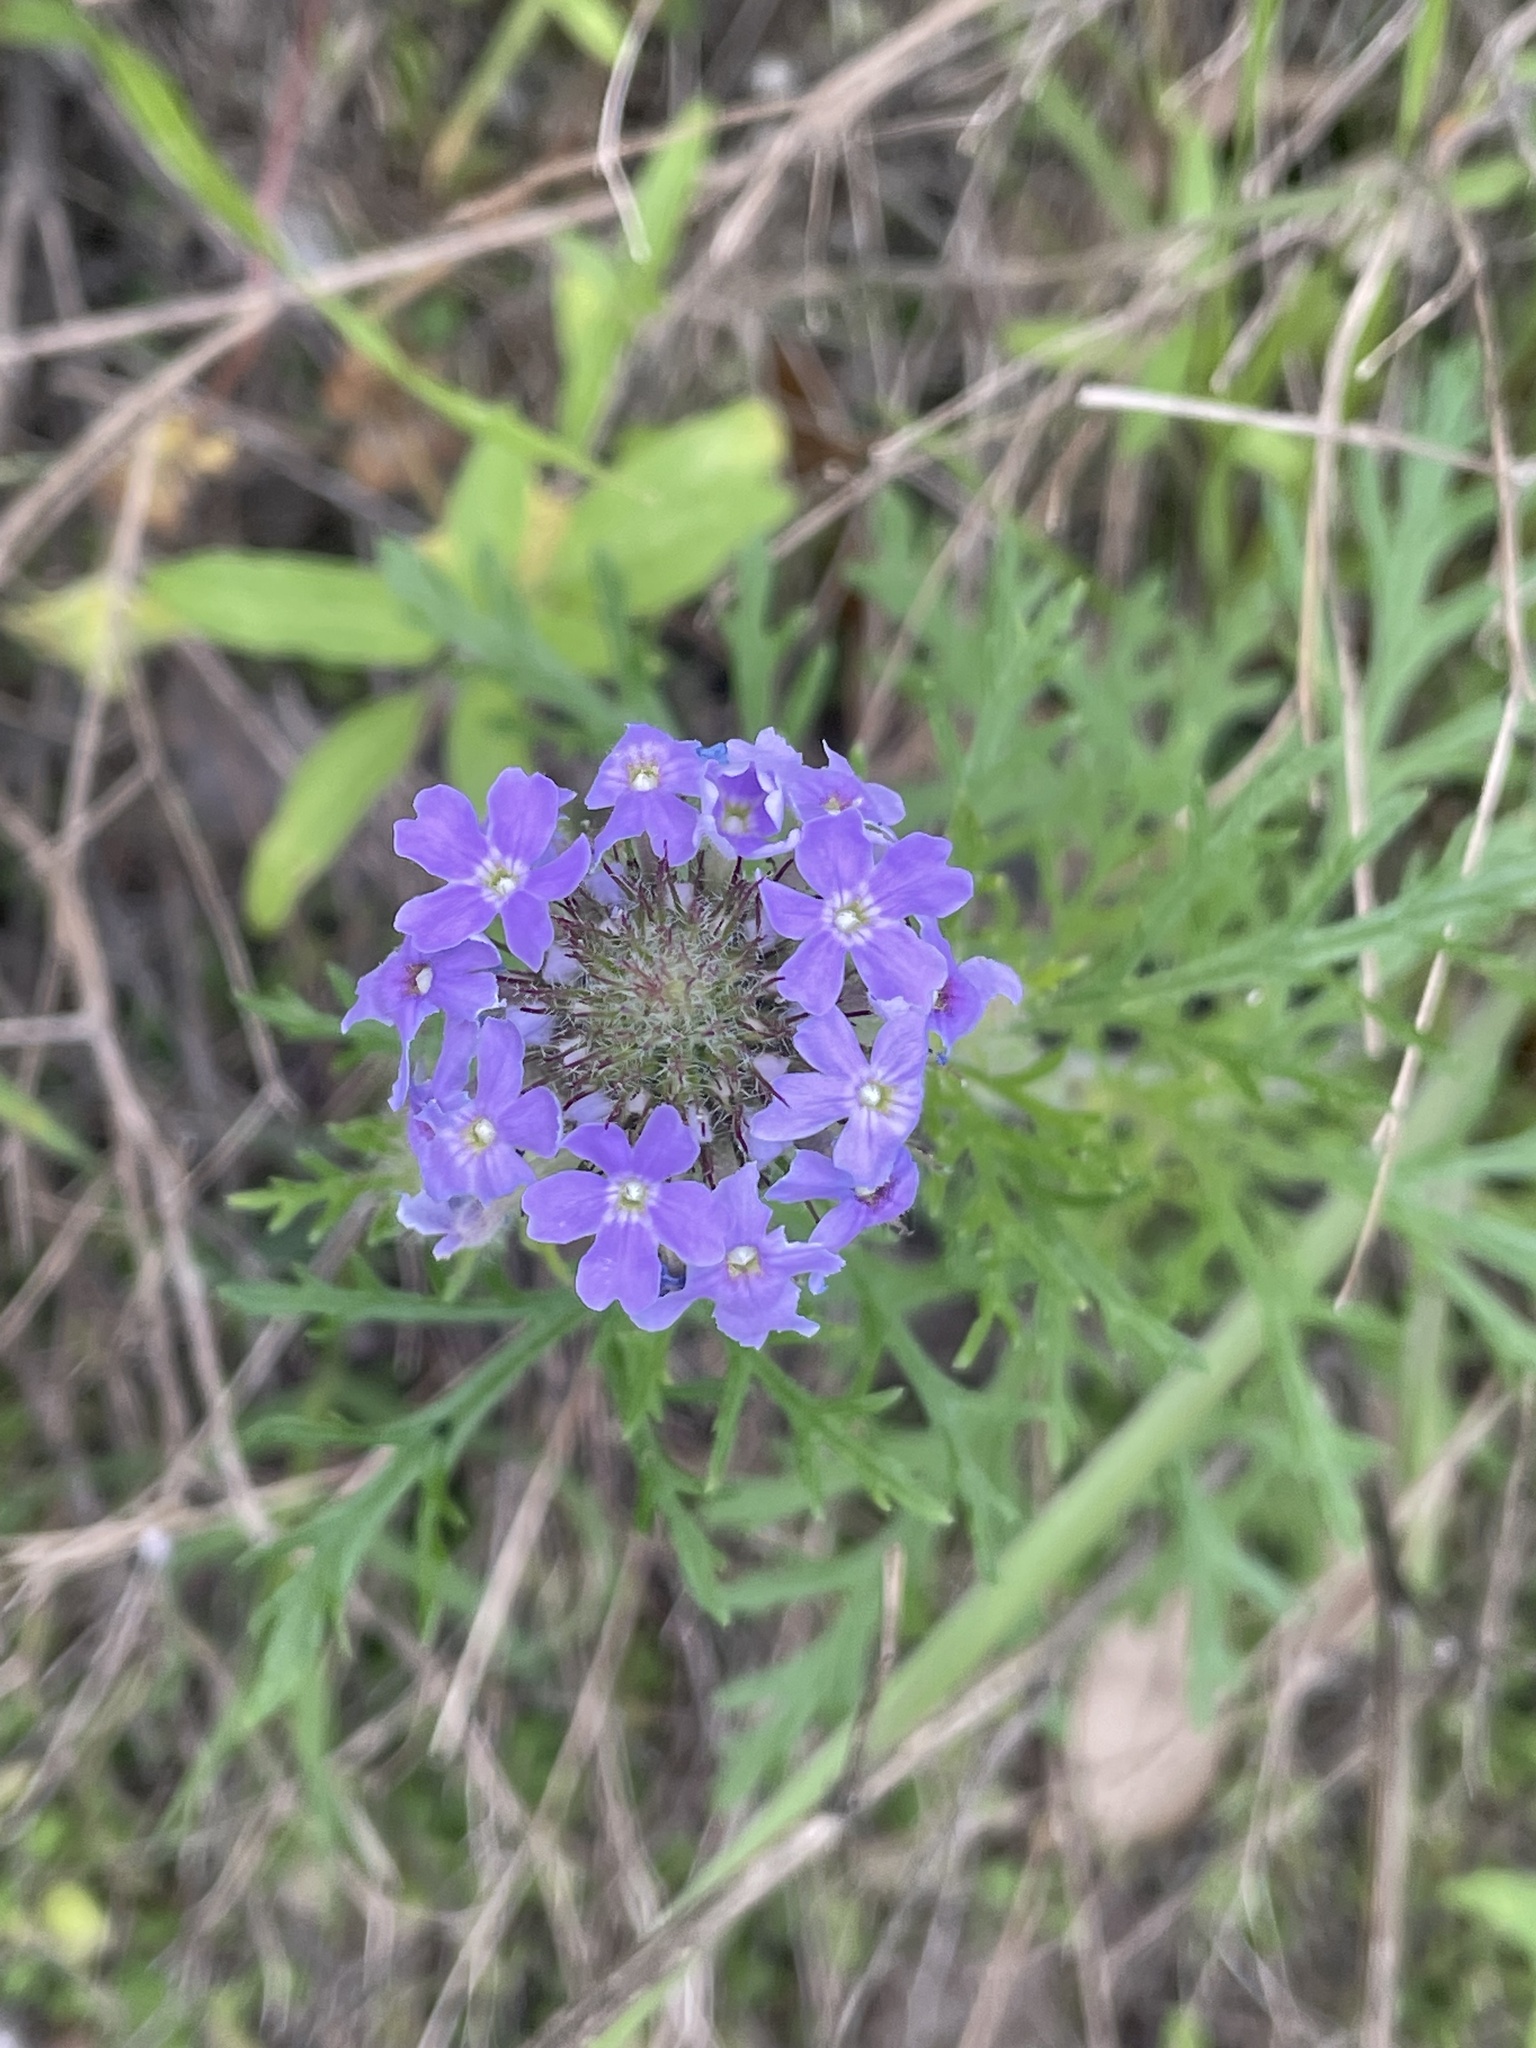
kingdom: Plantae
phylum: Tracheophyta
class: Magnoliopsida
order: Lamiales
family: Verbenaceae
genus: Verbena
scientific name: Verbena bipinnatifida
